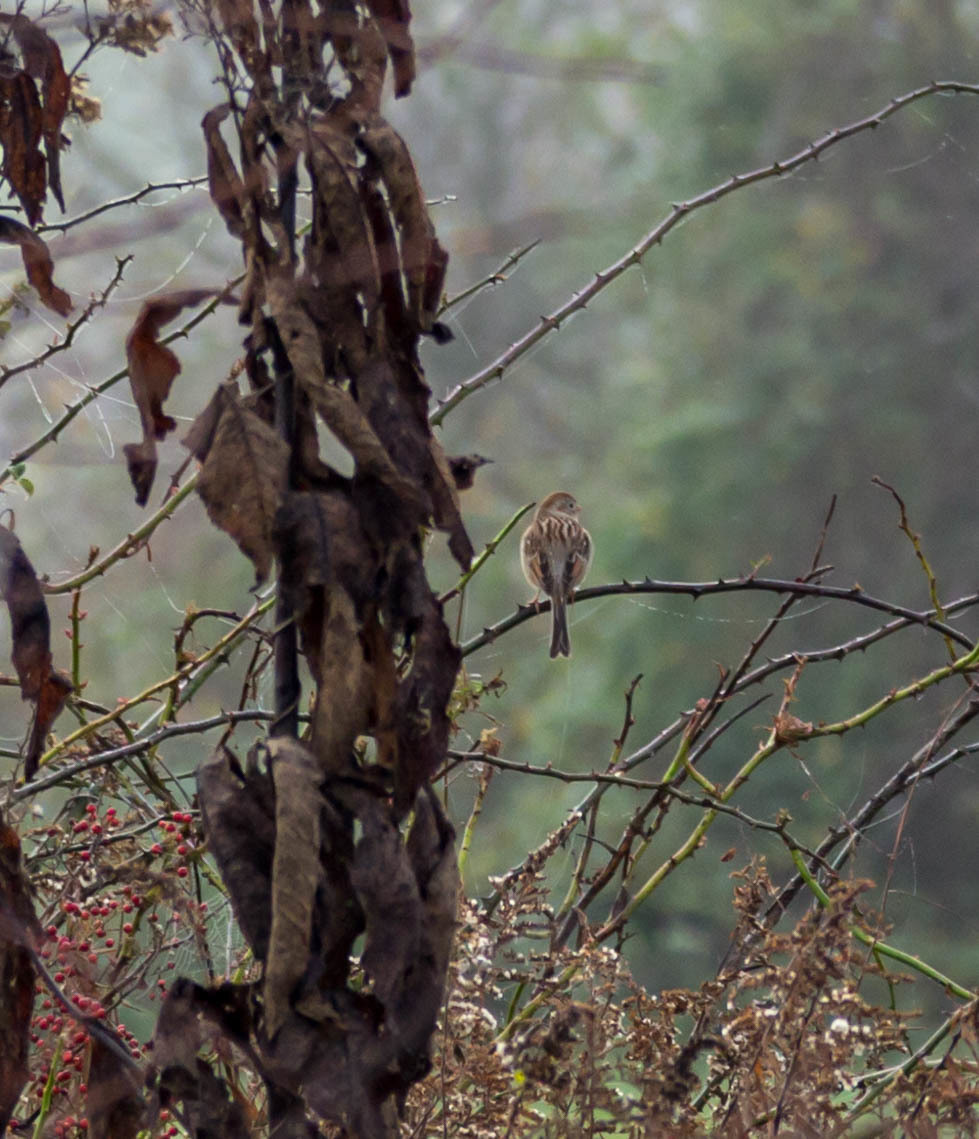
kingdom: Animalia
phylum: Chordata
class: Aves
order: Passeriformes
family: Passerellidae
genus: Spizella
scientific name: Spizella pusilla
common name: Field sparrow
